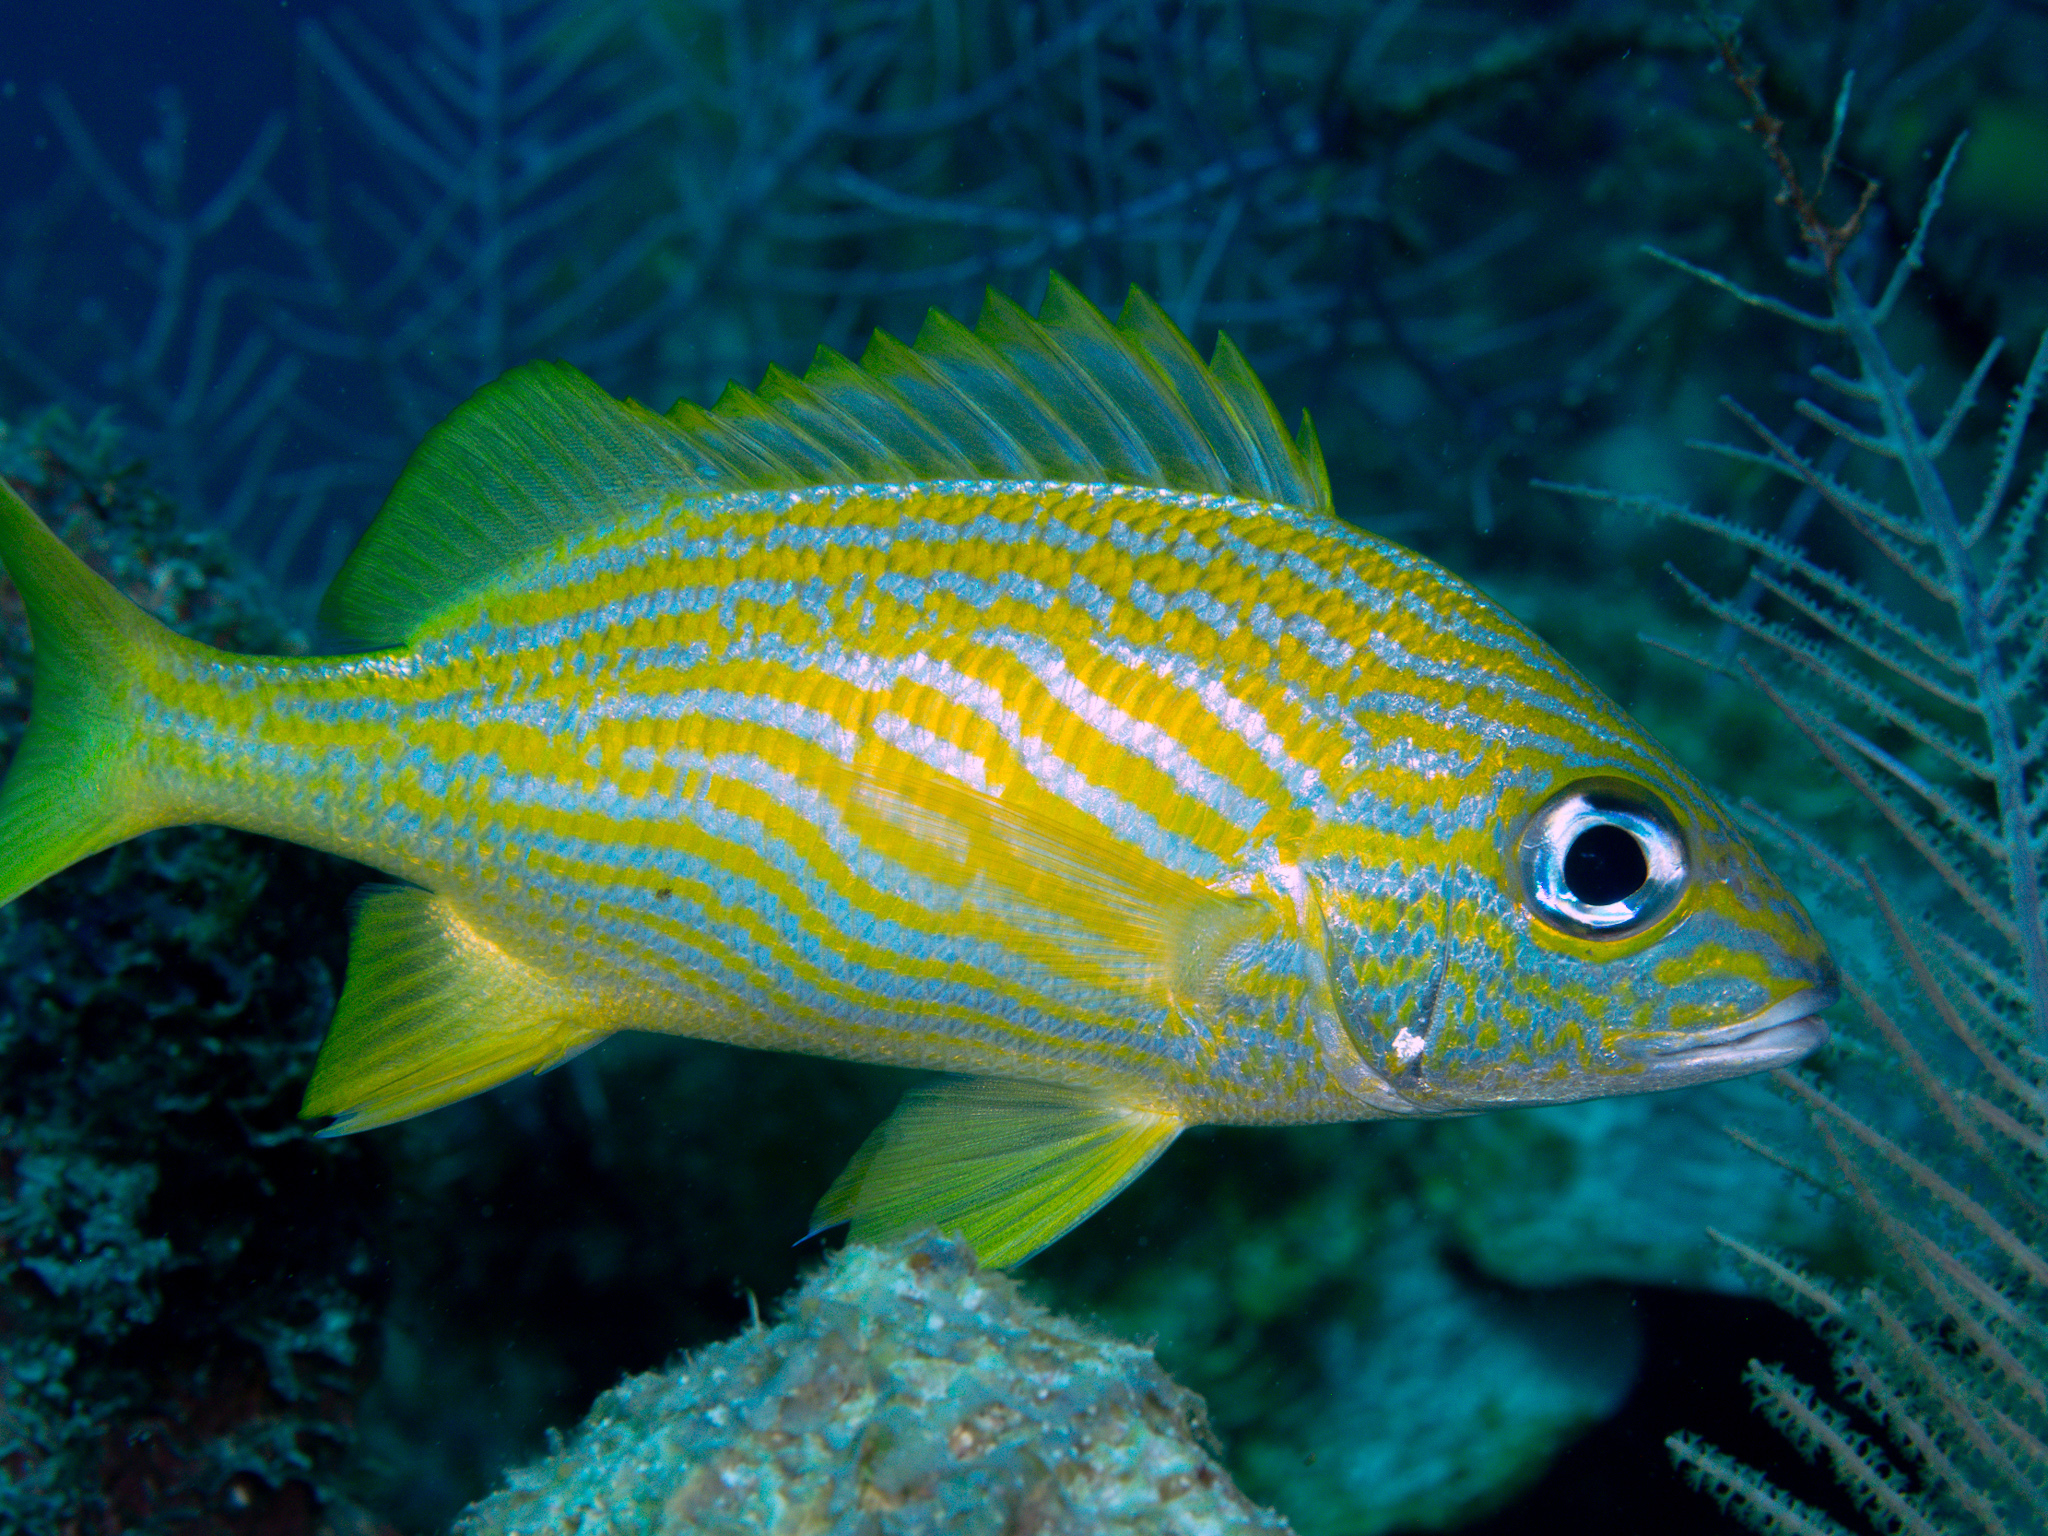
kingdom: Animalia
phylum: Chordata
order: Perciformes
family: Haemulidae
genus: Haemulon
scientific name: Haemulon flavolineatum
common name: French grunt
